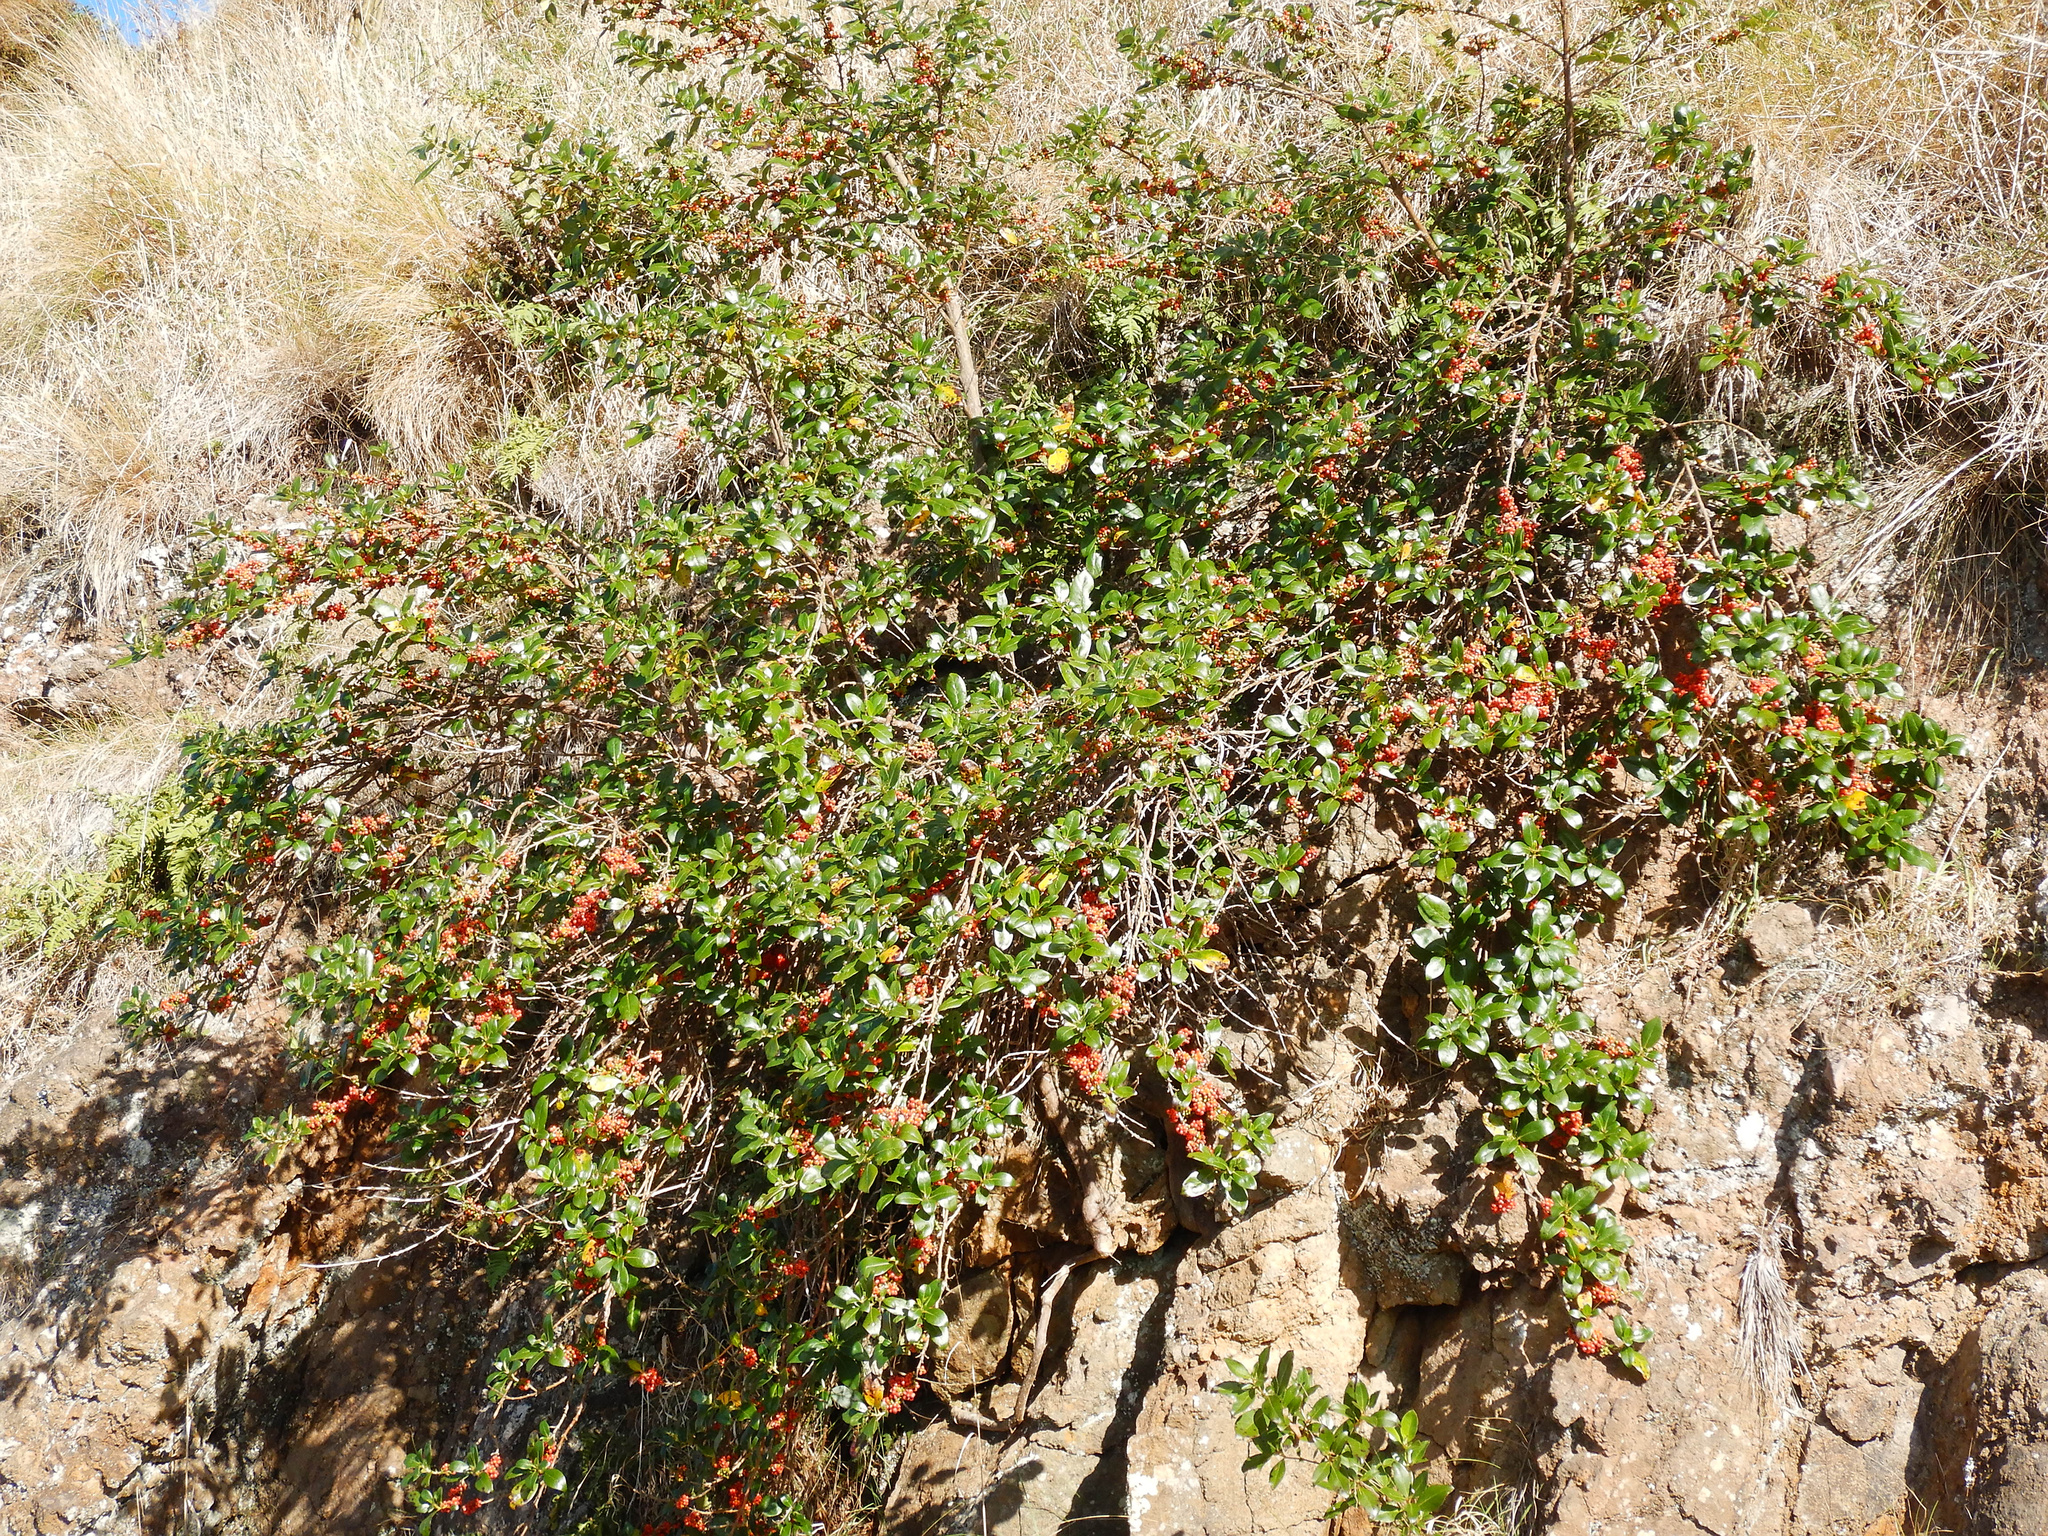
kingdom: Plantae
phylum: Tracheophyta
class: Magnoliopsida
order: Gentianales
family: Rubiaceae
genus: Coprosma
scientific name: Coprosma robusta
